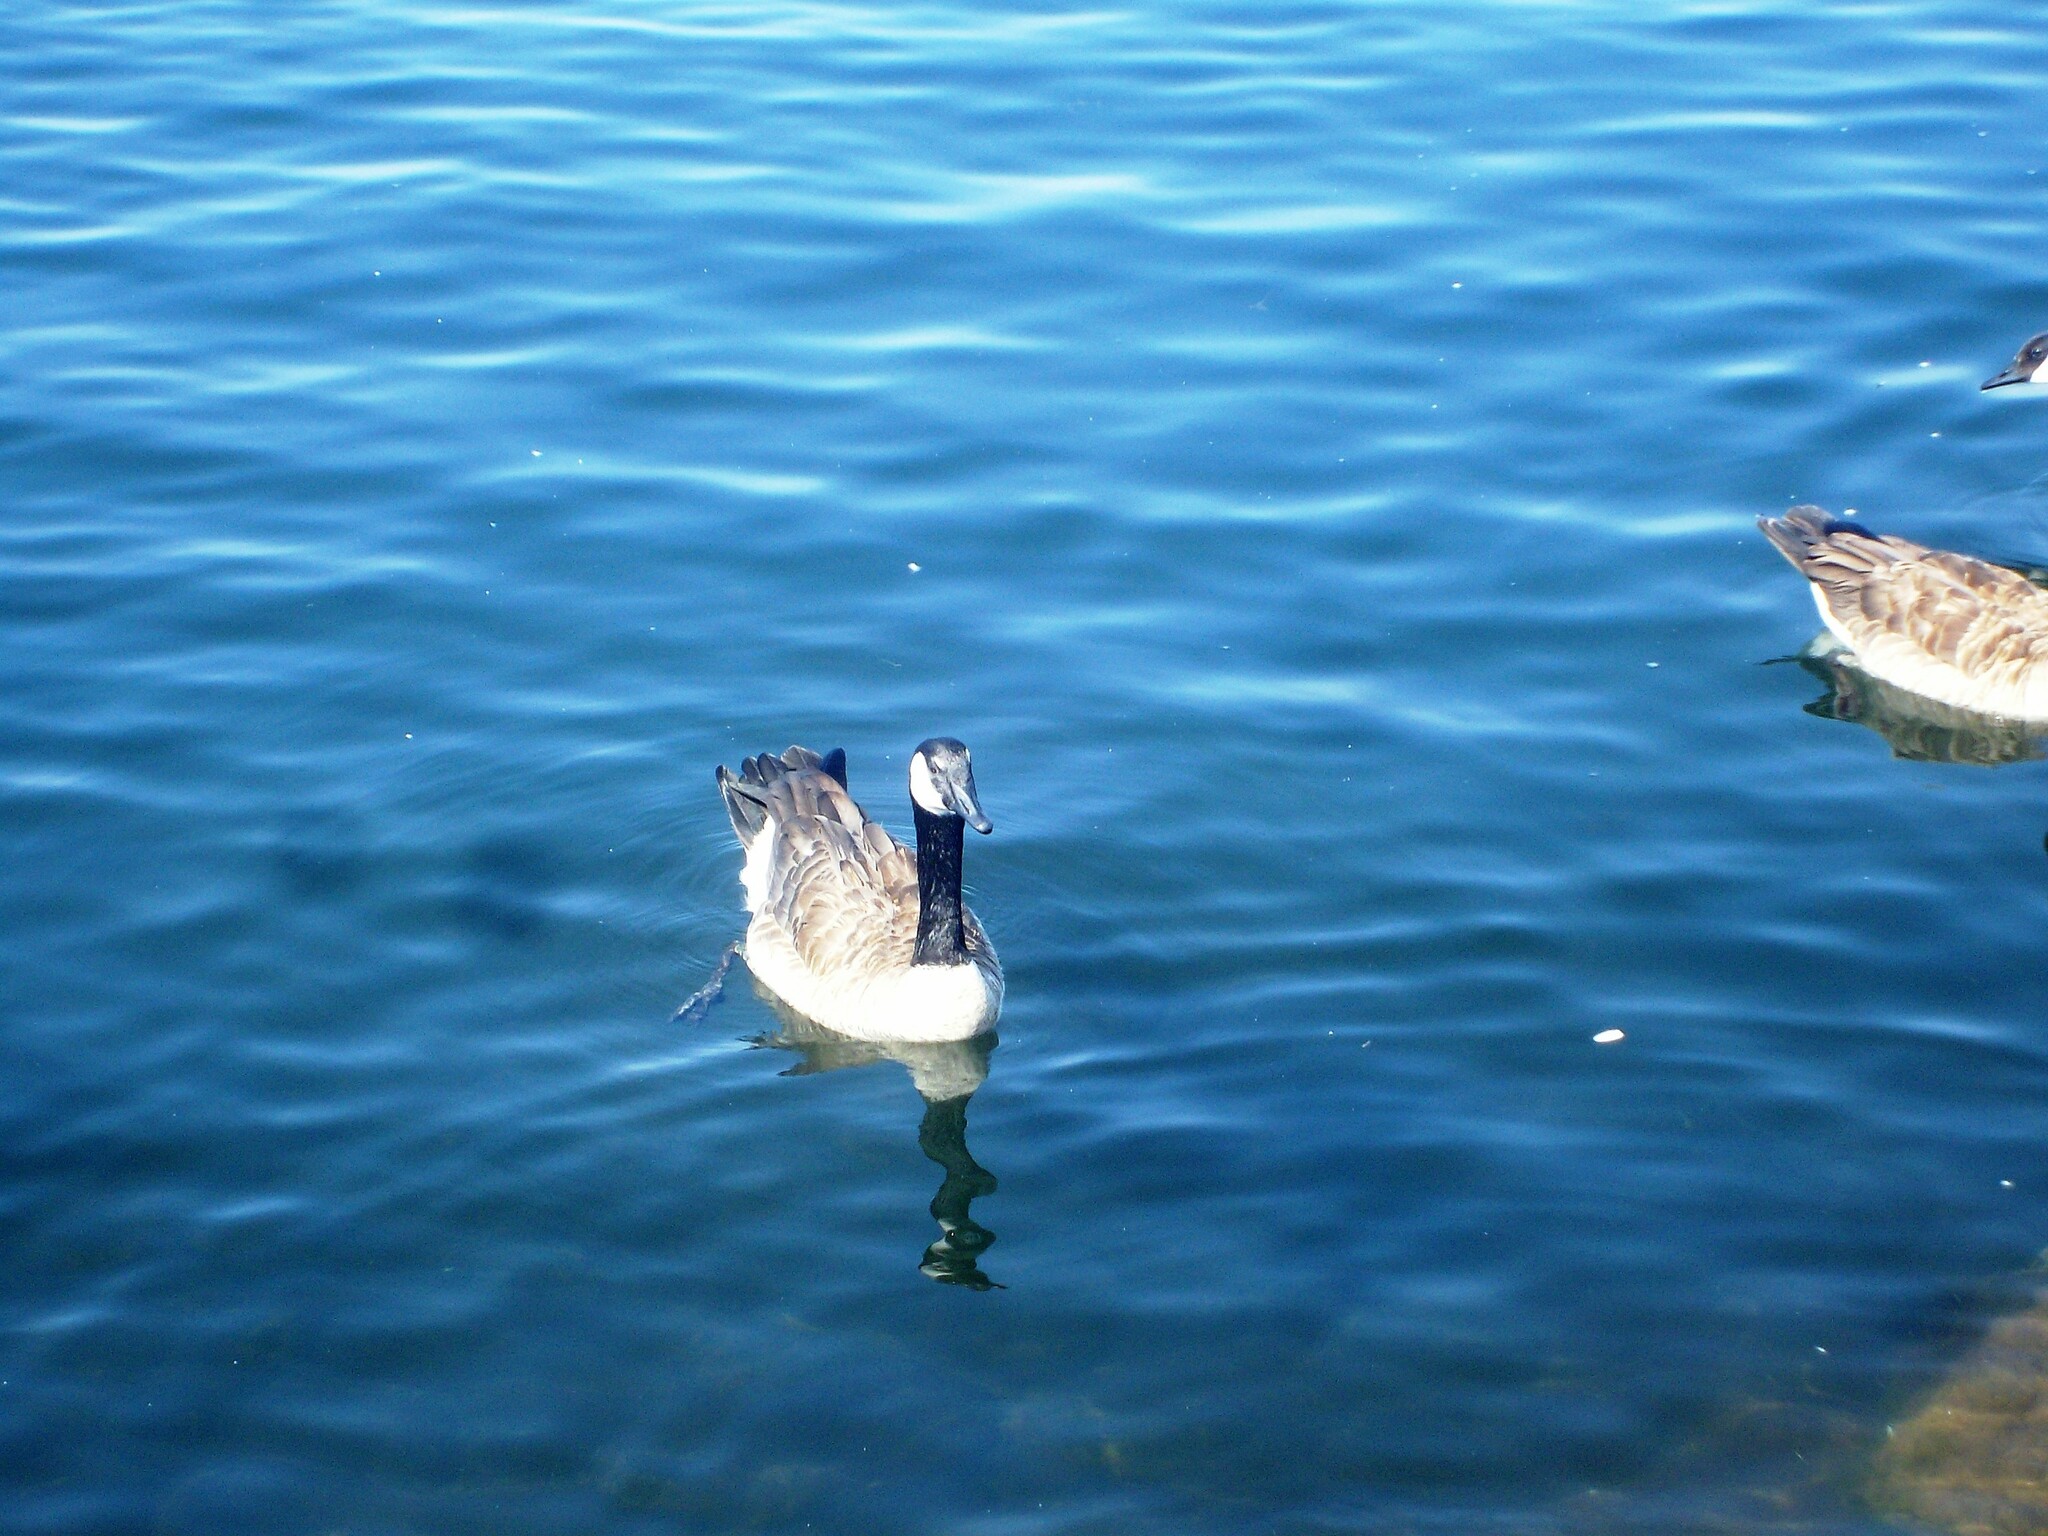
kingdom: Animalia
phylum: Chordata
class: Aves
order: Anseriformes
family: Anatidae
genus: Branta
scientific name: Branta canadensis
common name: Canada goose
